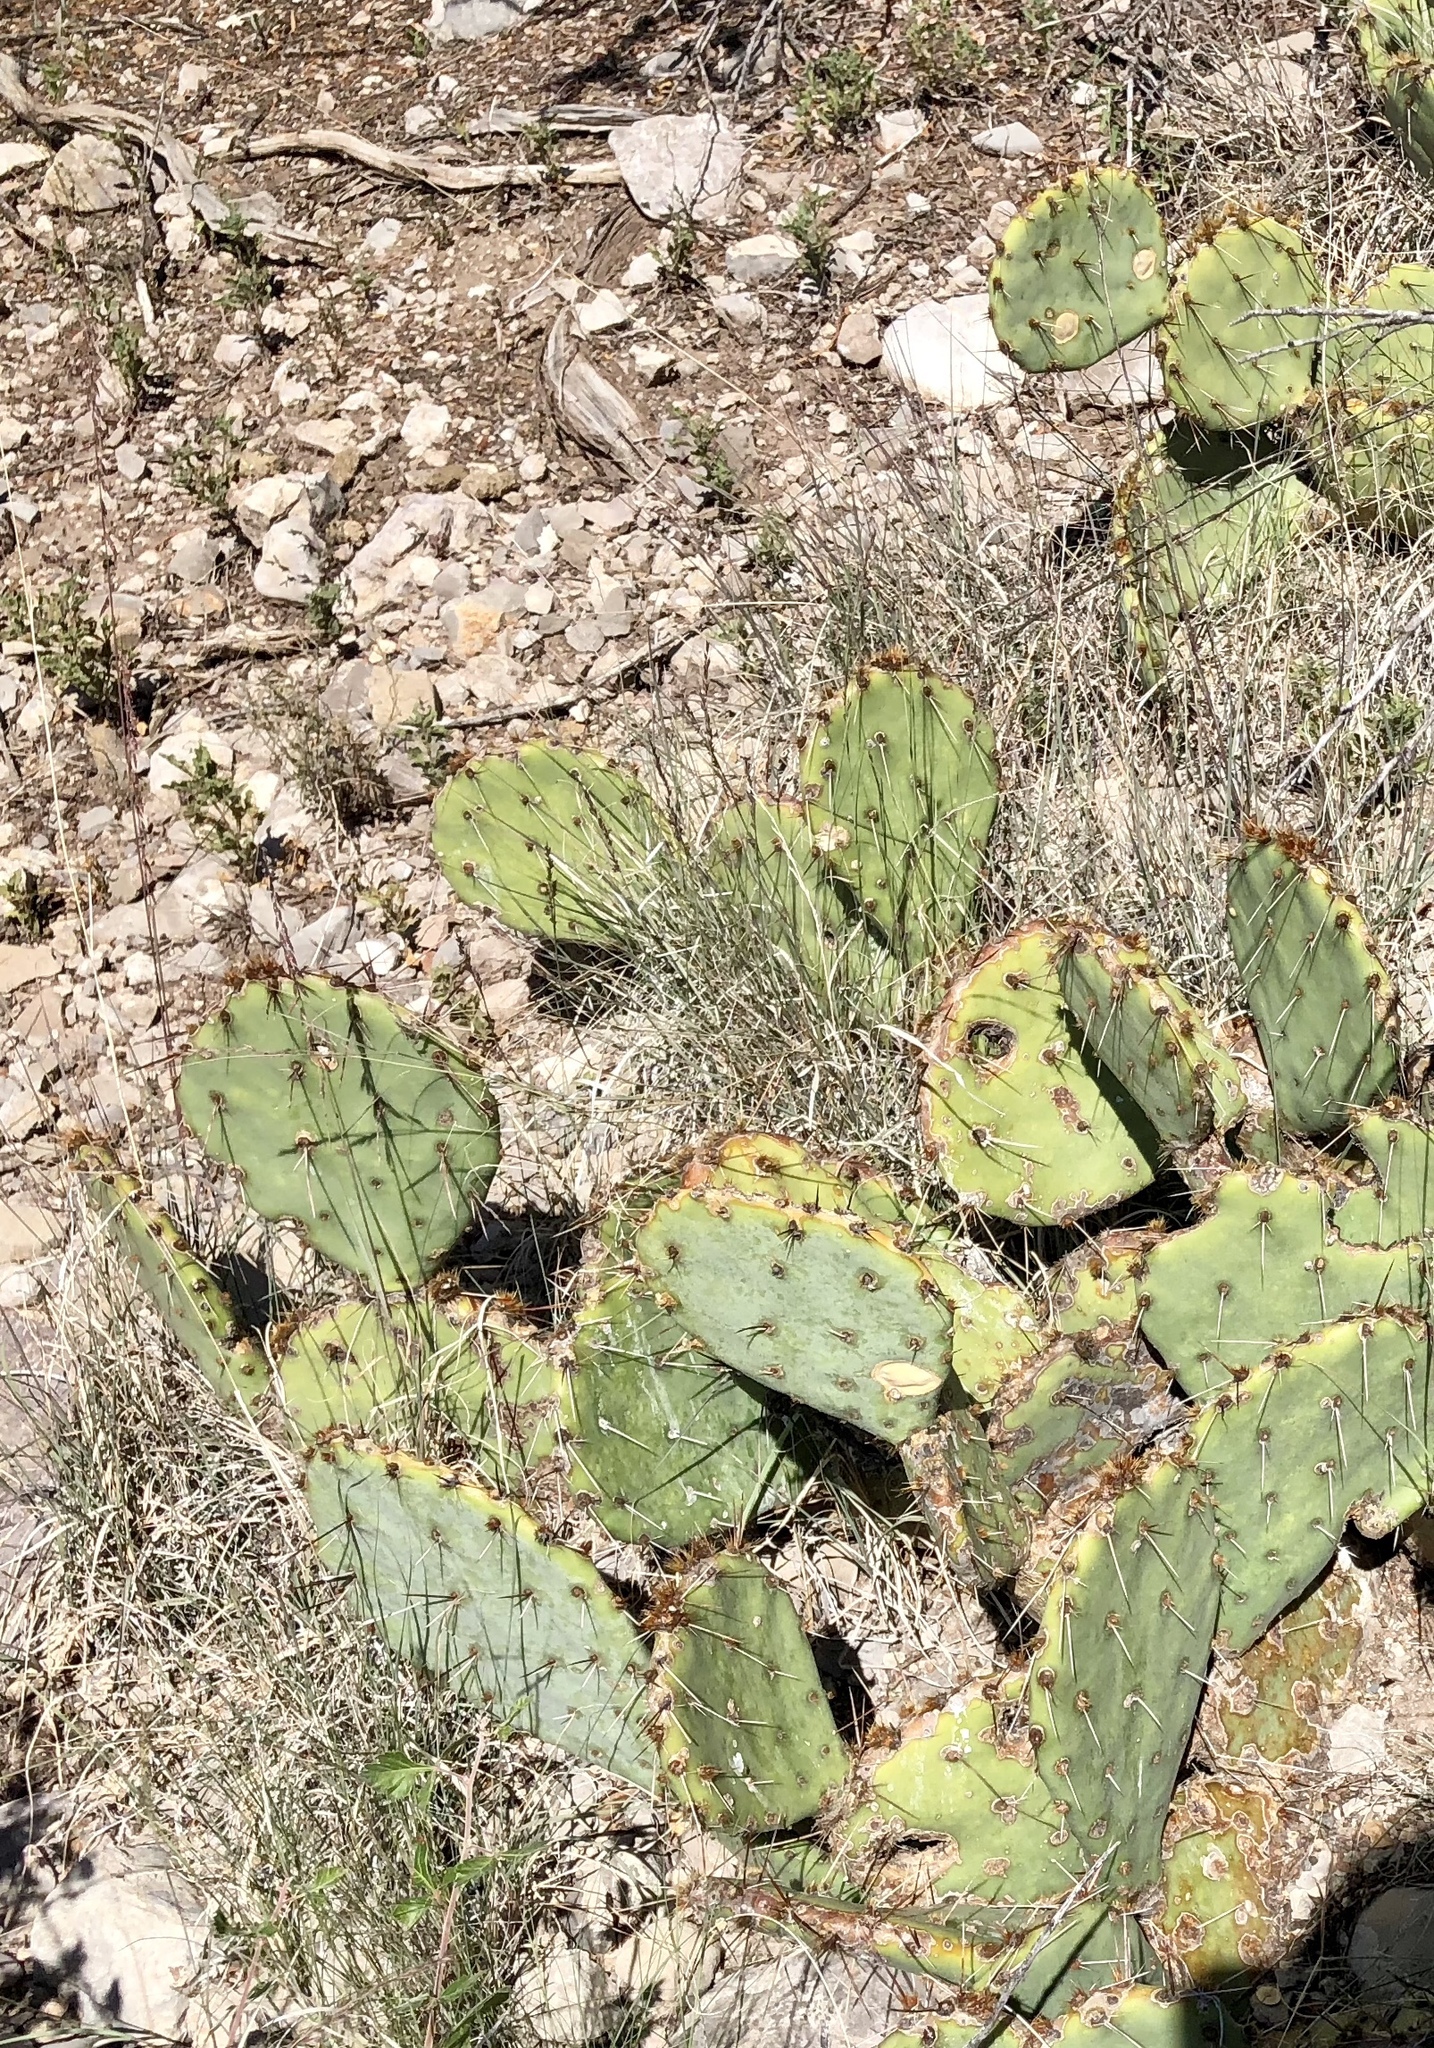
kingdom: Plantae
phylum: Tracheophyta
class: Magnoliopsida
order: Caryophyllales
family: Cactaceae
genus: Opuntia
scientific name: Opuntia engelmannii
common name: Cactus-apple
